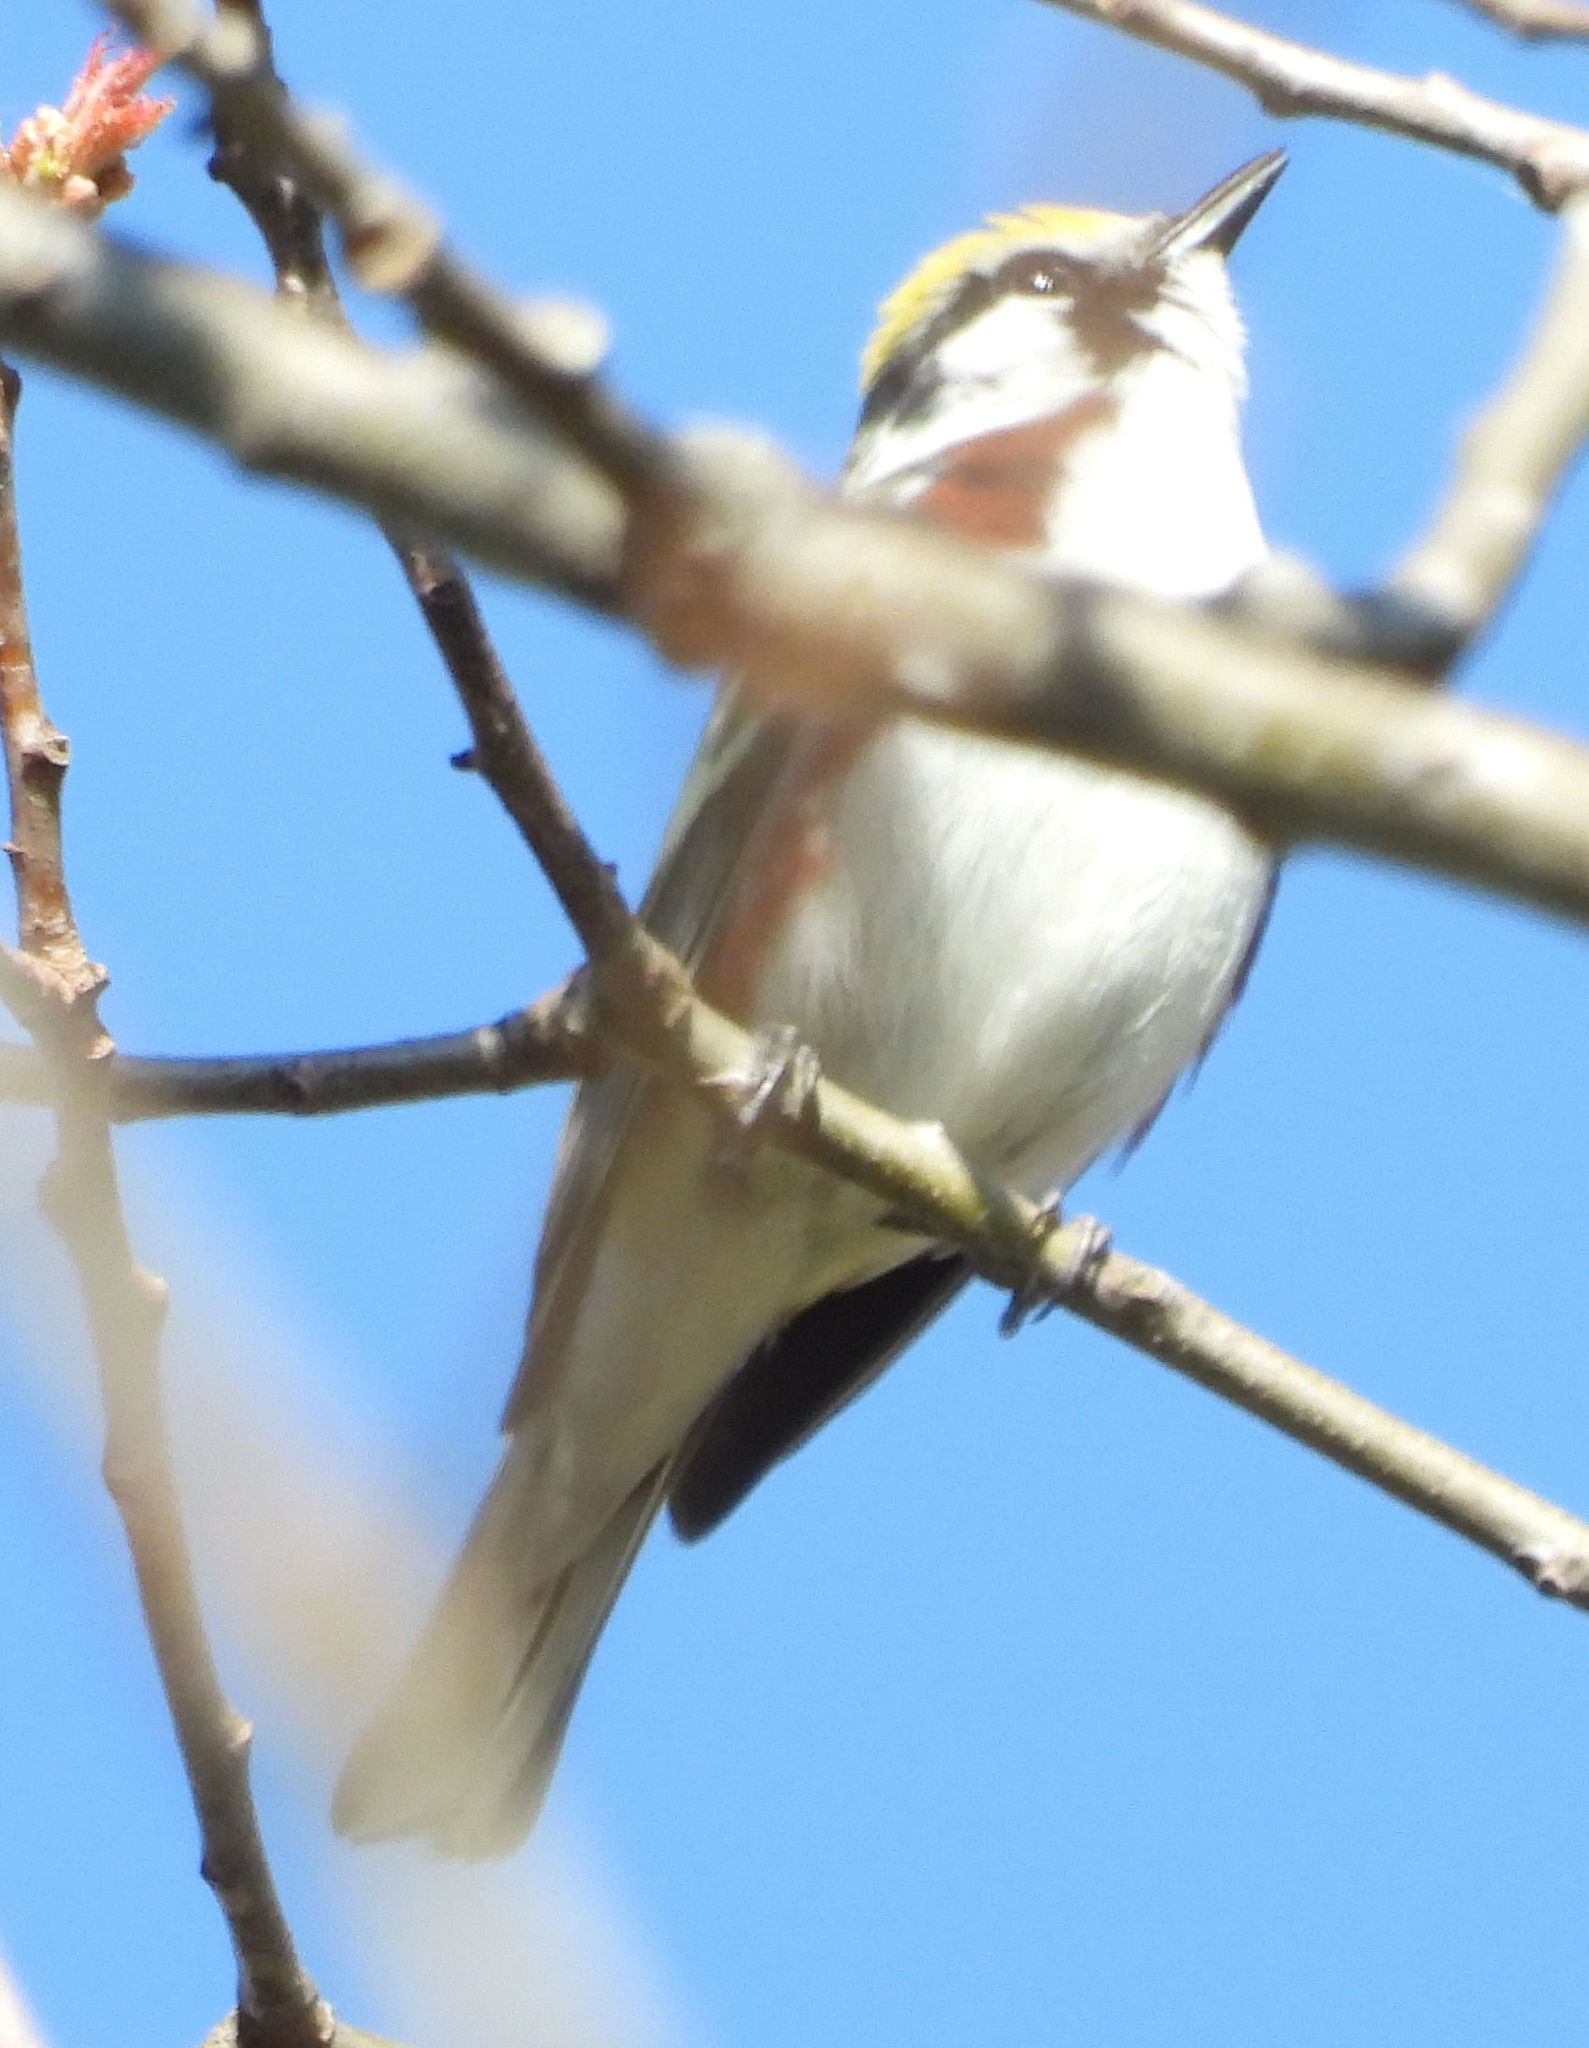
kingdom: Animalia
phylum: Chordata
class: Aves
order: Passeriformes
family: Parulidae
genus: Setophaga
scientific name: Setophaga pensylvanica
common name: Chestnut-sided warbler
